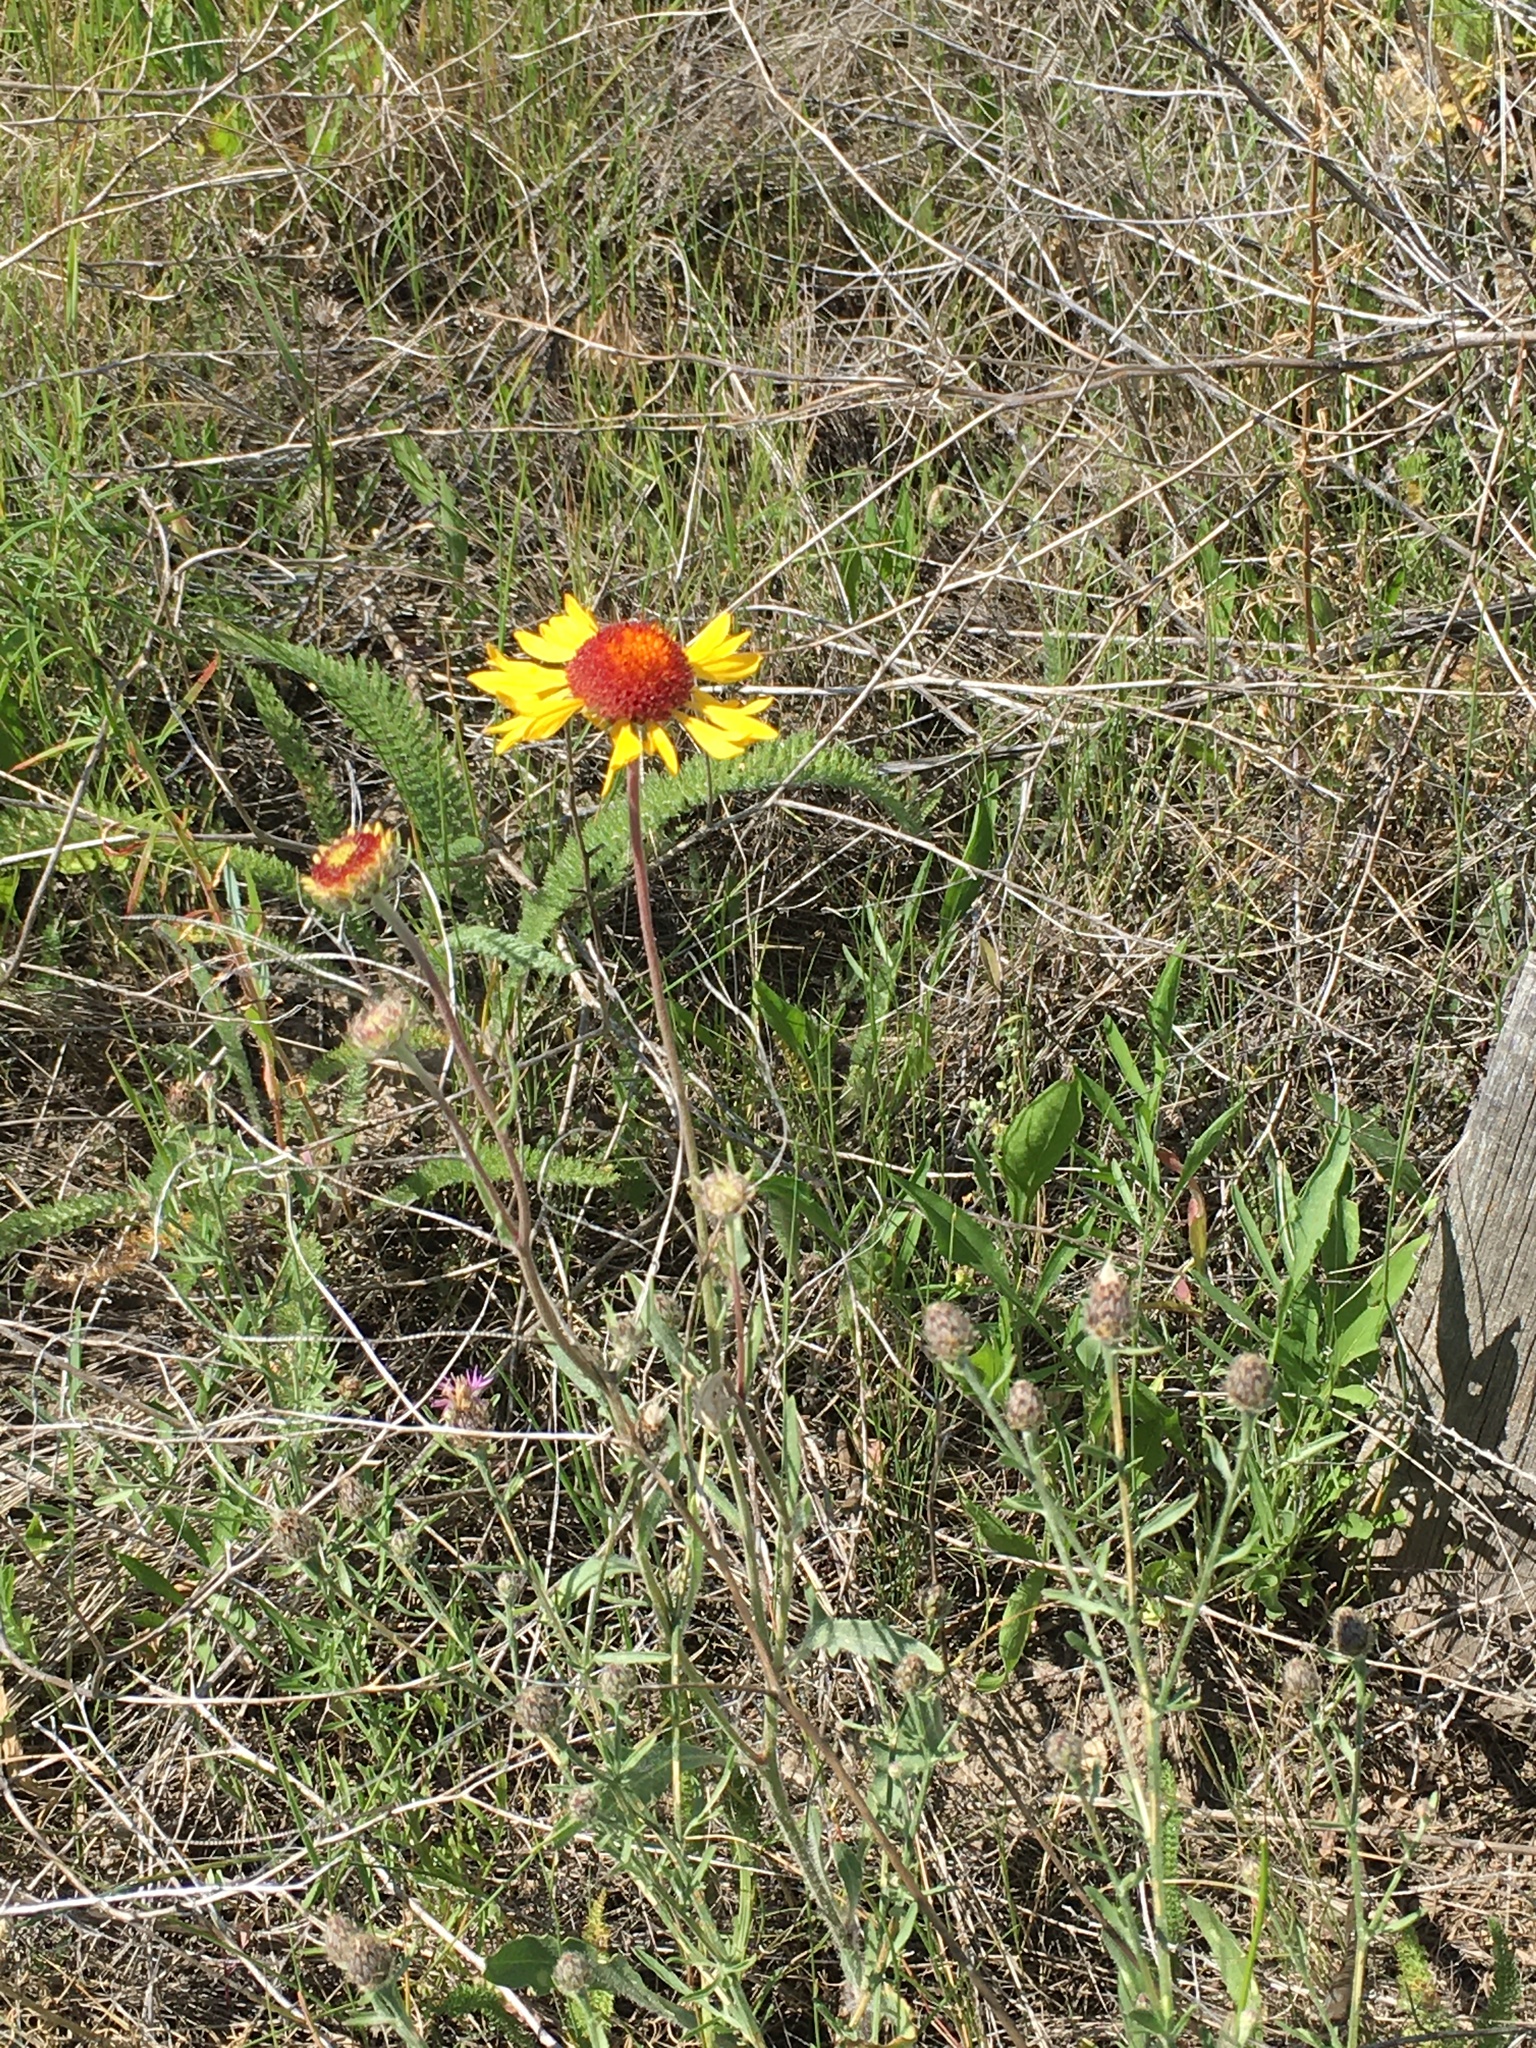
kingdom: Plantae
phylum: Tracheophyta
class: Magnoliopsida
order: Asterales
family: Asteraceae
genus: Gaillardia
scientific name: Gaillardia aristata
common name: Blanket-flower
